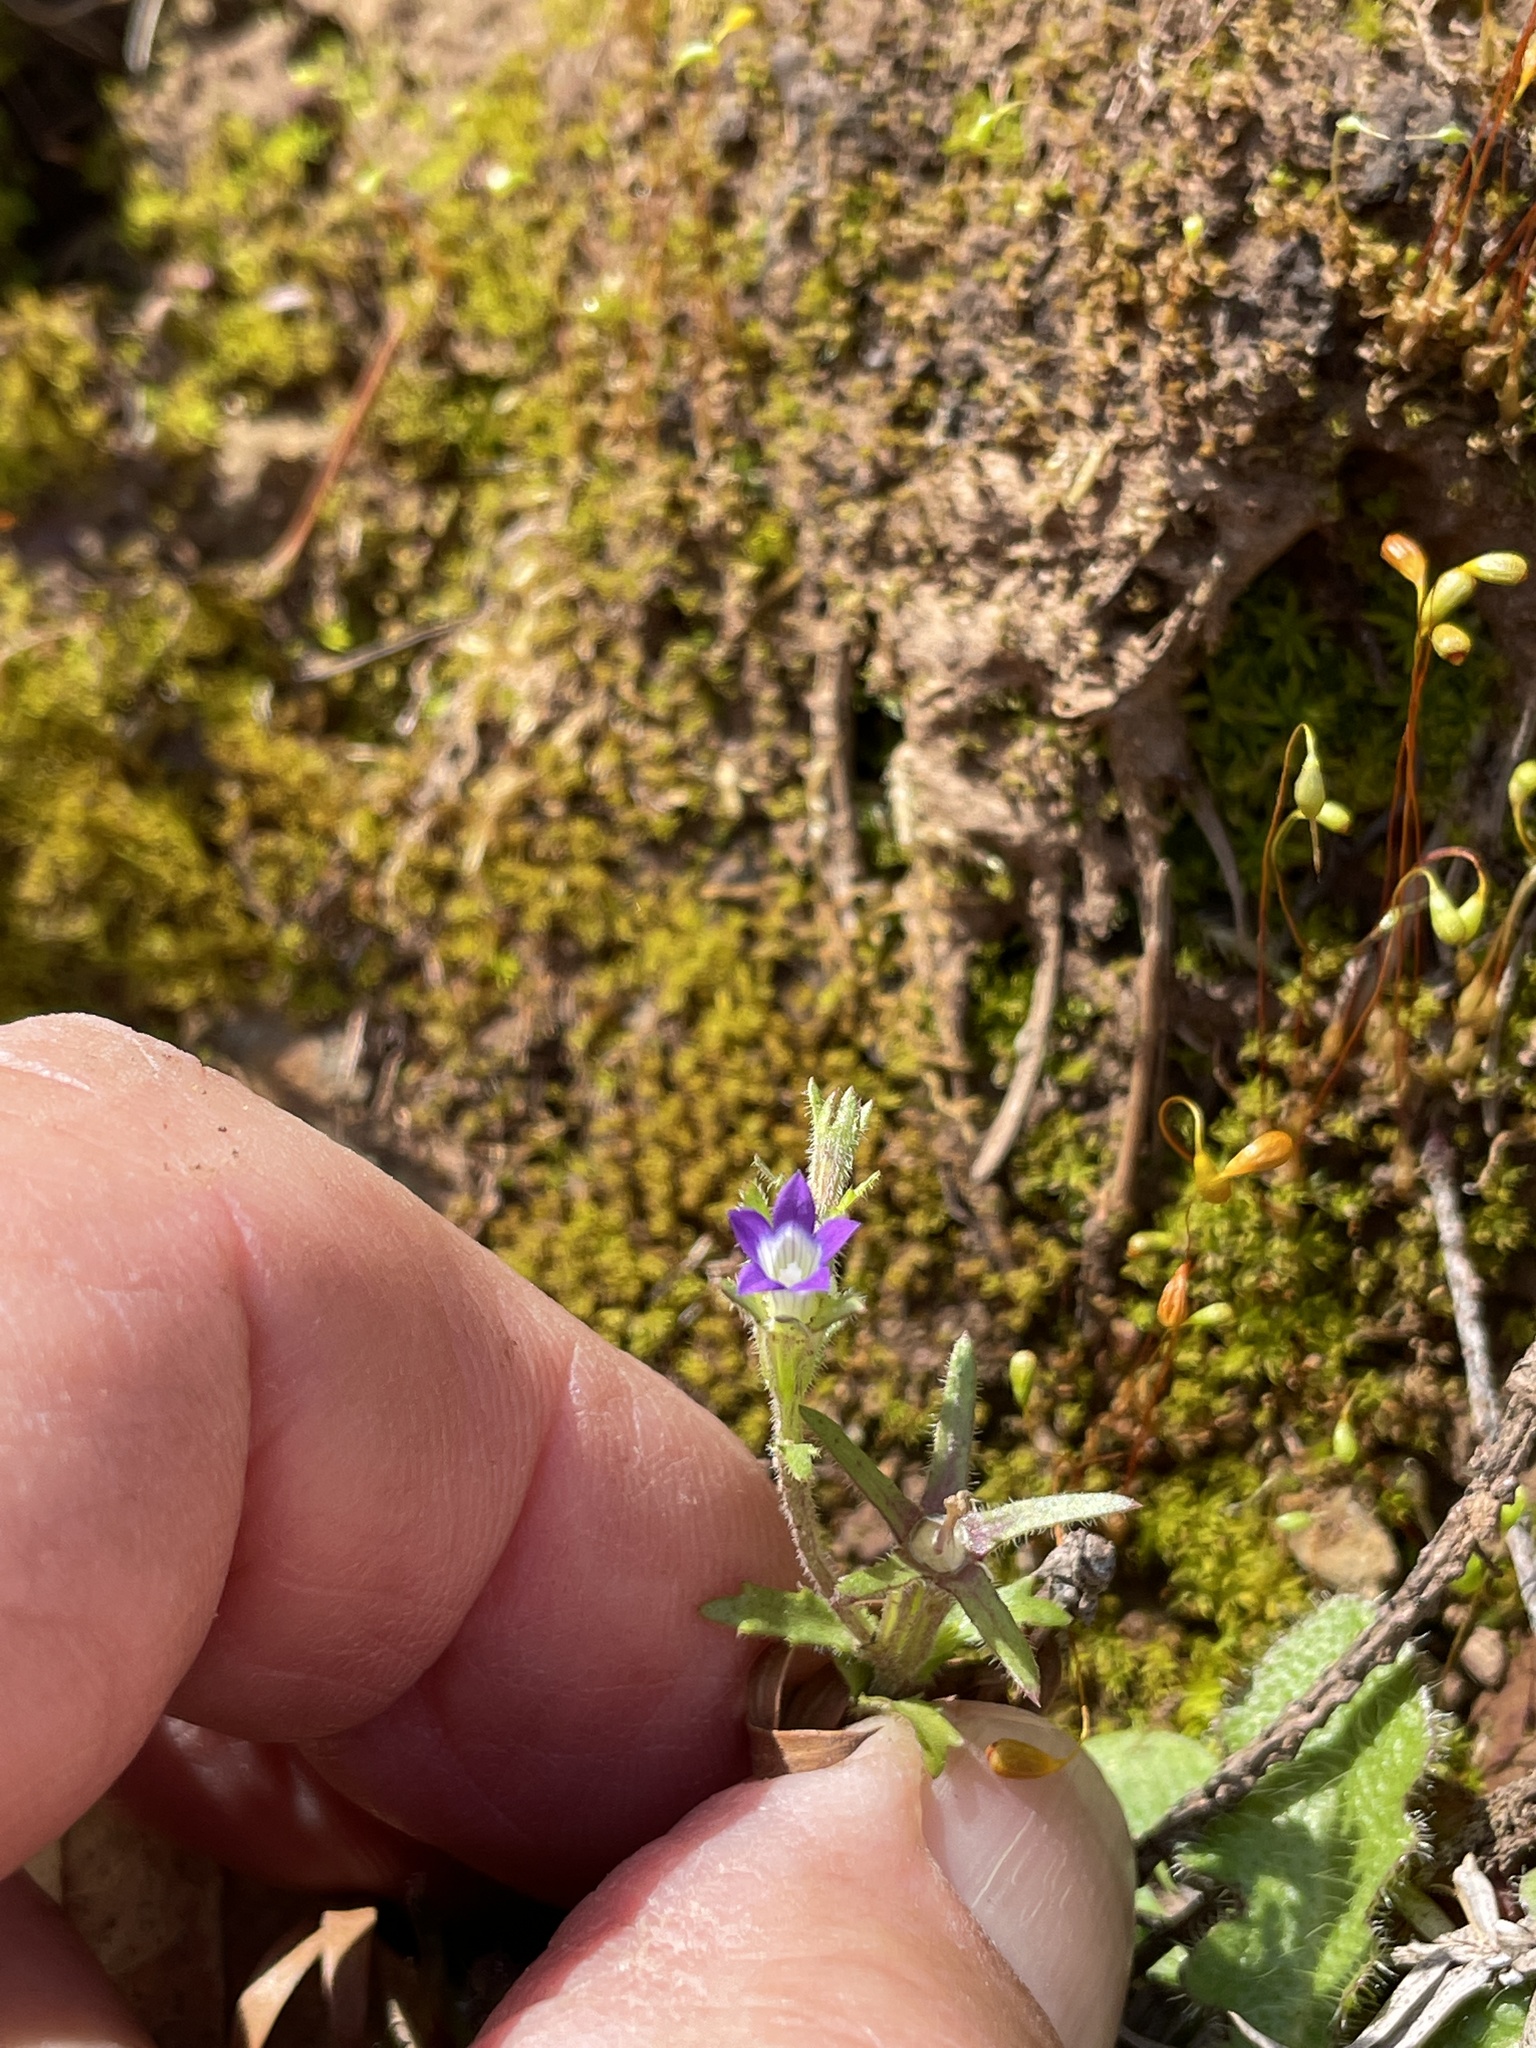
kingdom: Plantae
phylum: Tracheophyta
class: Magnoliopsida
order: Asterales
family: Campanulaceae
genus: Githopsis
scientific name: Githopsis specularioides
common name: Common bluecup
